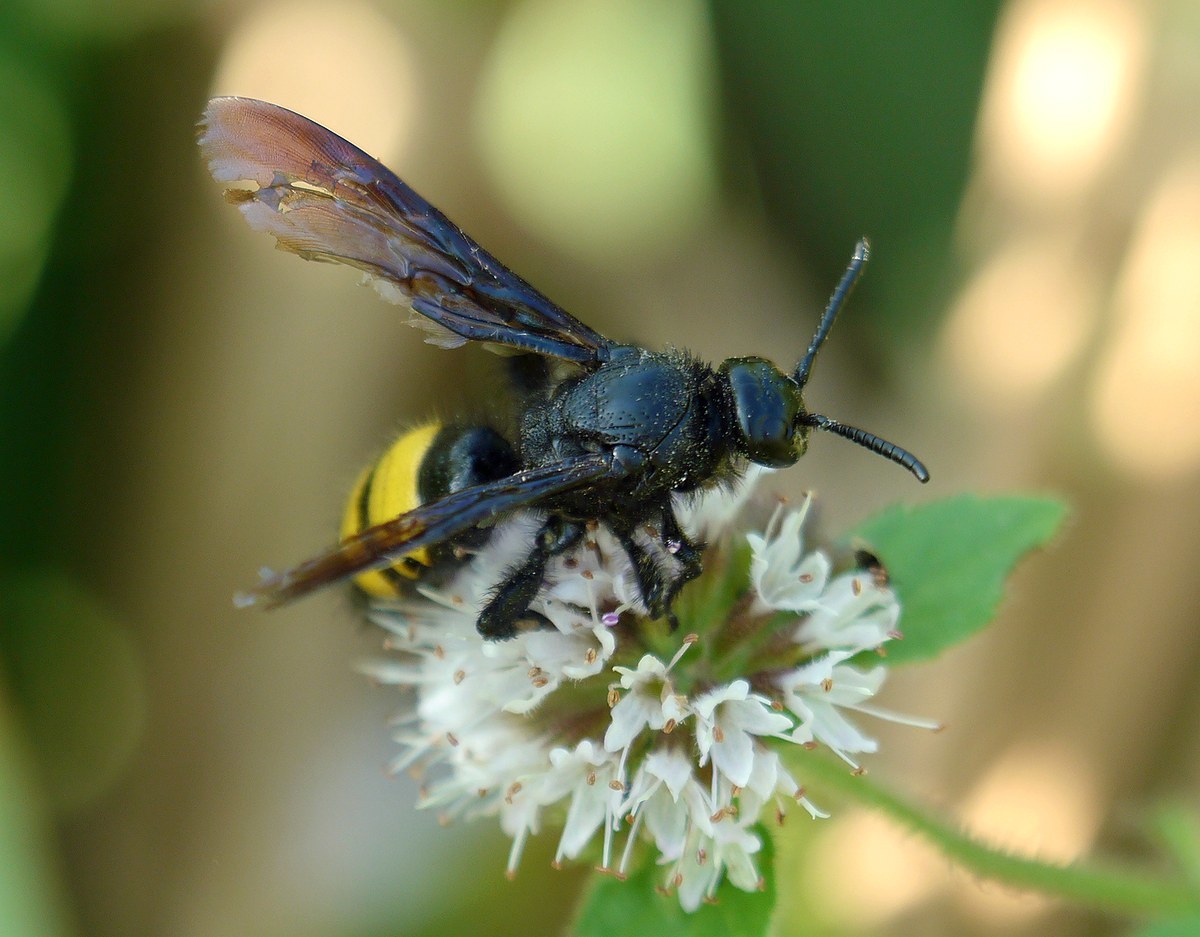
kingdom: Animalia
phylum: Arthropoda
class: Insecta
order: Hymenoptera
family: Scoliidae
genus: Scolia
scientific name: Scolia hirta
